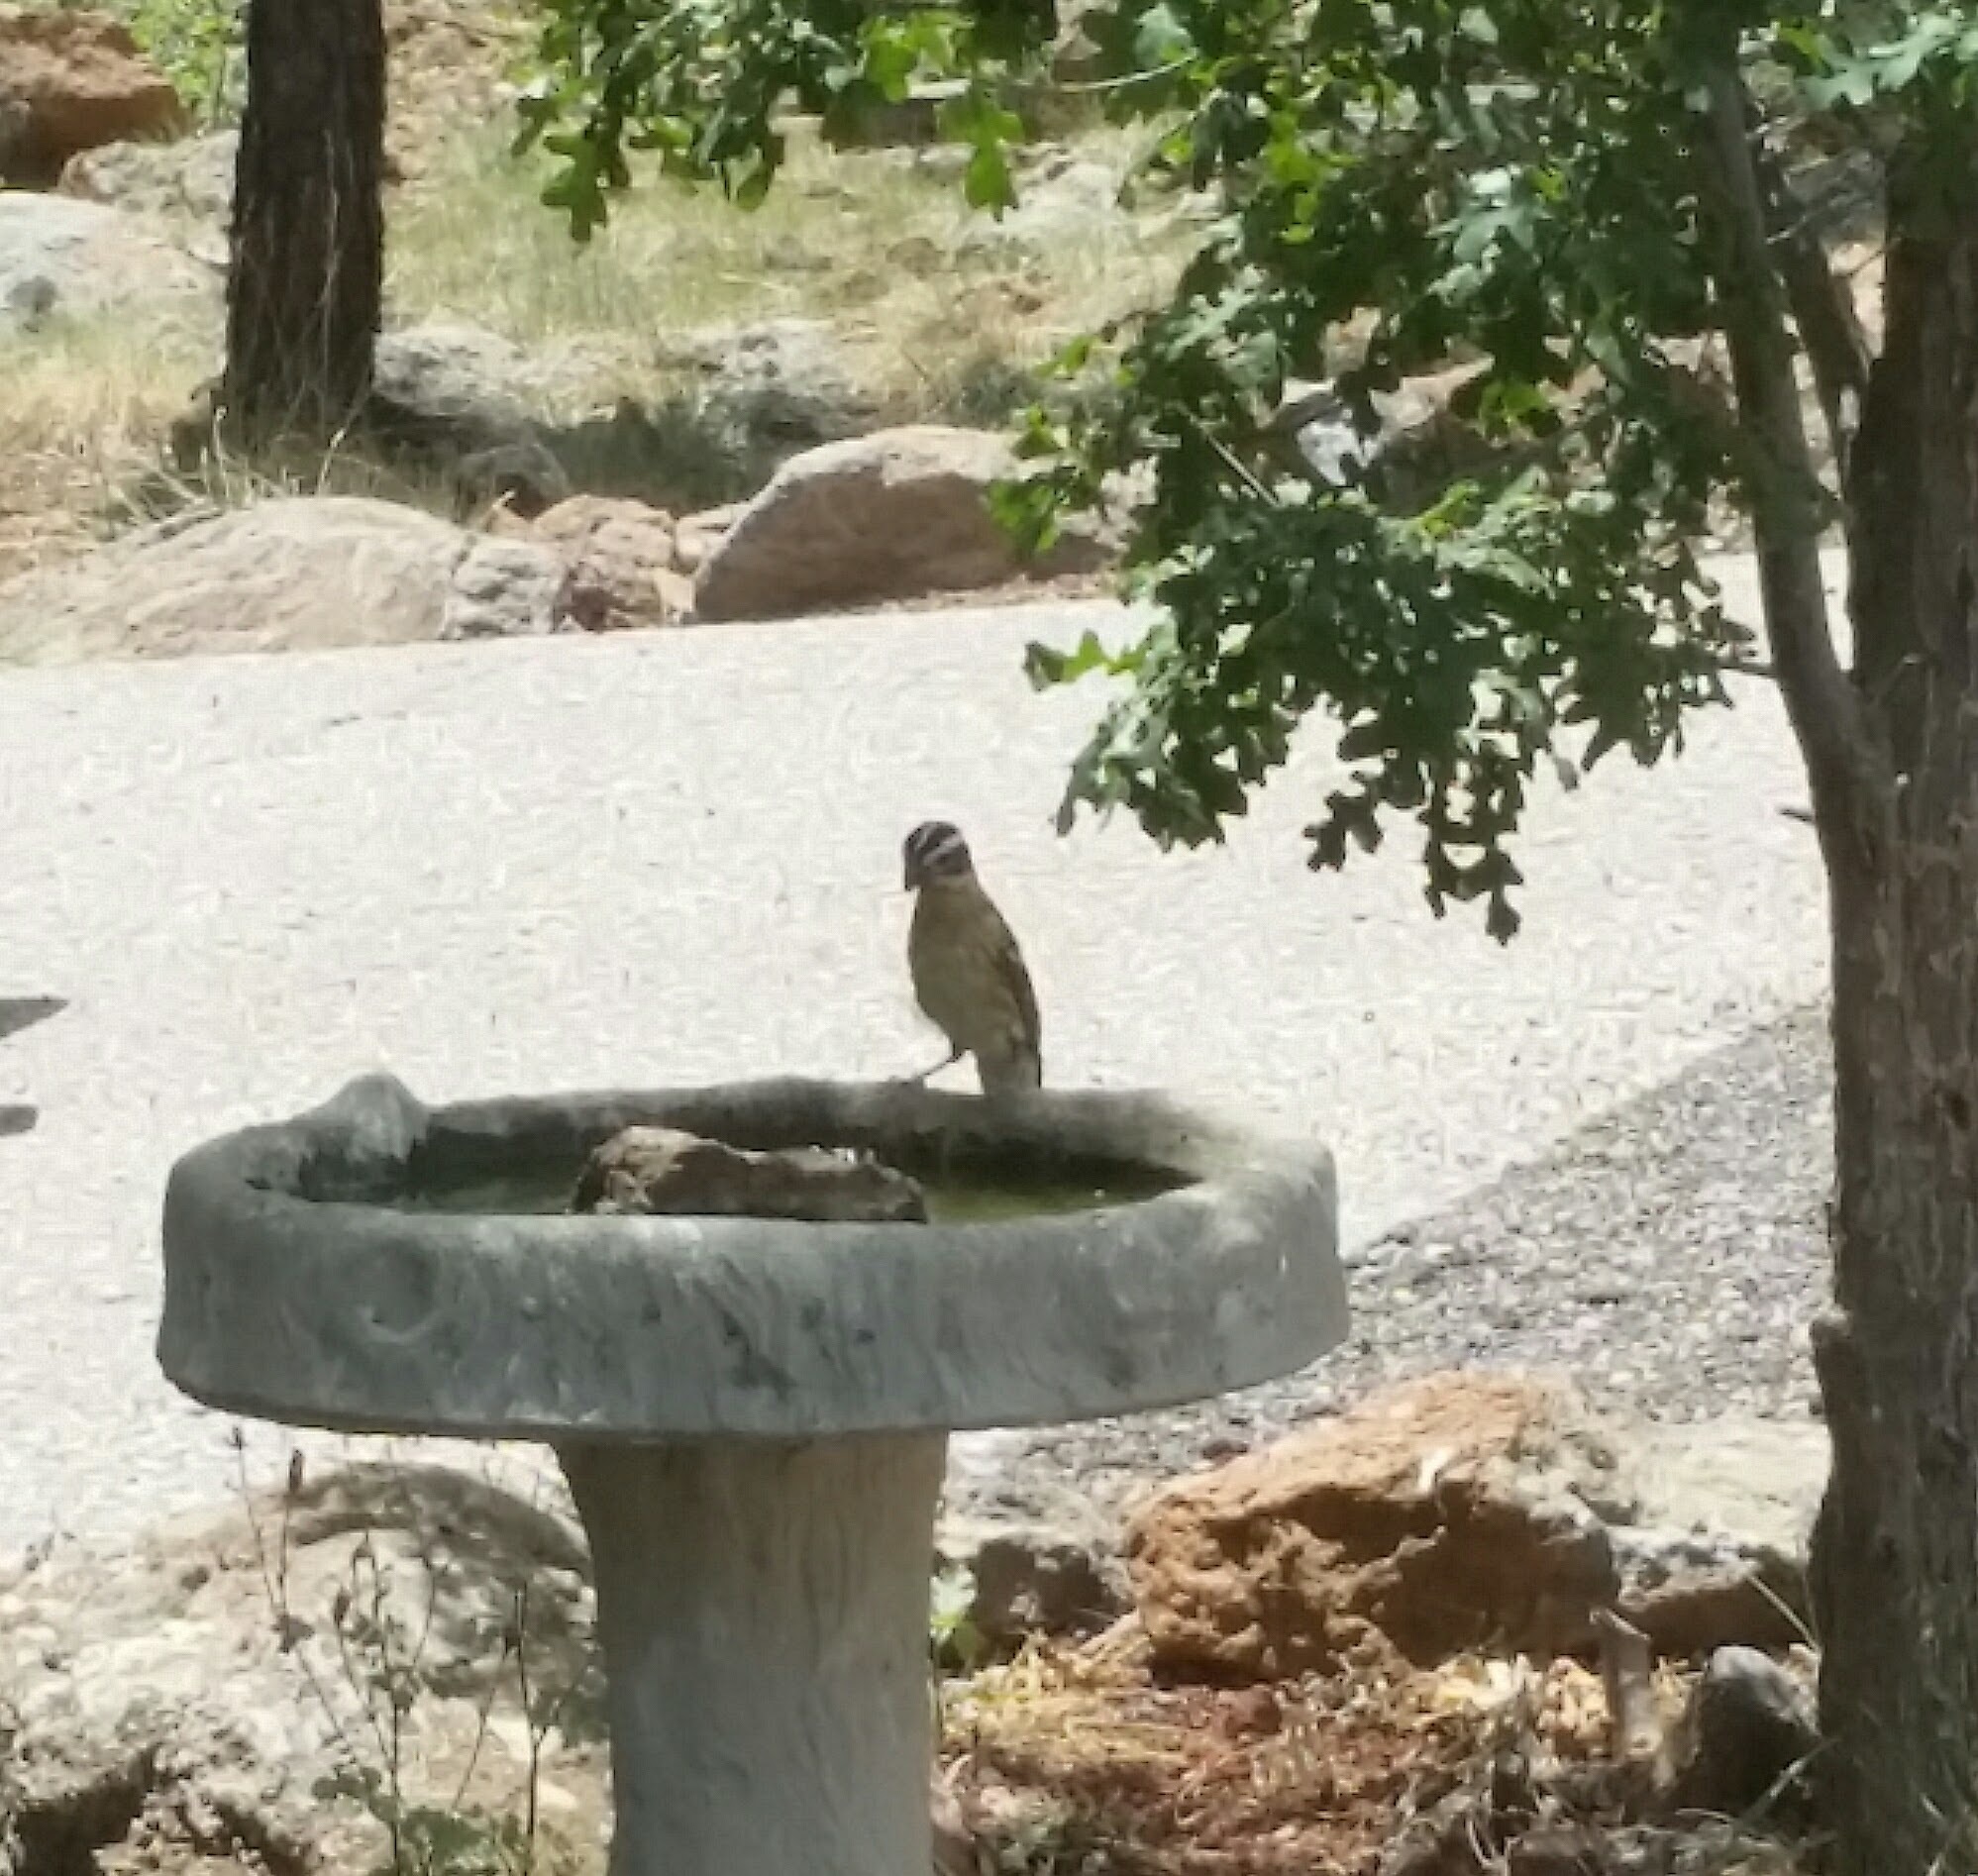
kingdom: Animalia
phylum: Chordata
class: Aves
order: Passeriformes
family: Cardinalidae
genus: Pheucticus
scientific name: Pheucticus melanocephalus
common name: Black-headed grosbeak
